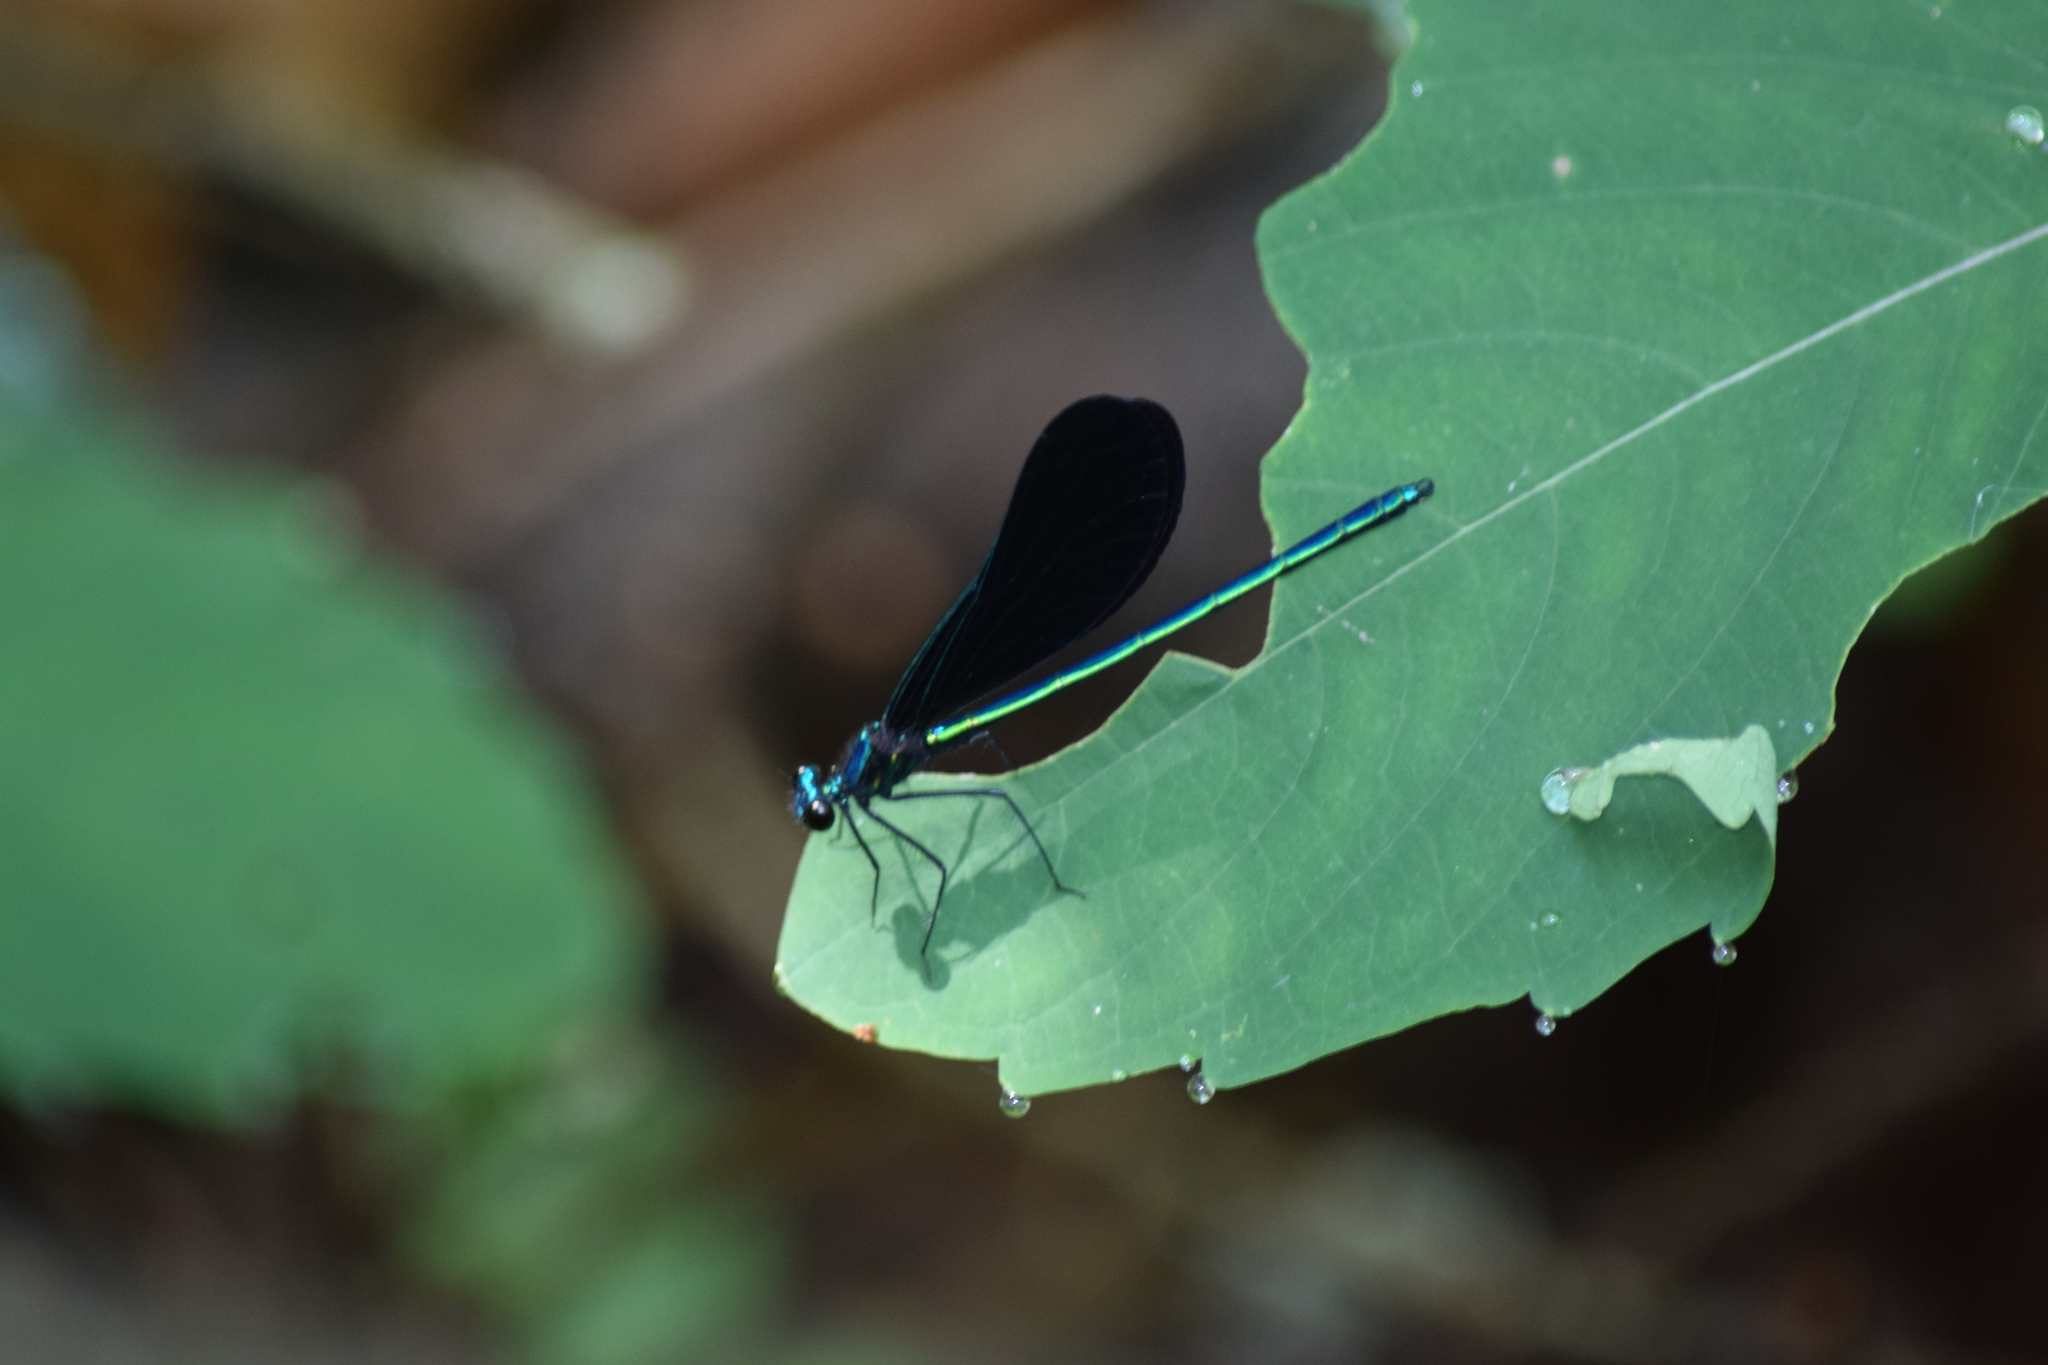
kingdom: Animalia
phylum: Arthropoda
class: Insecta
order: Odonata
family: Calopterygidae
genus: Calopteryx
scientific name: Calopteryx maculata
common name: Ebony jewelwing
